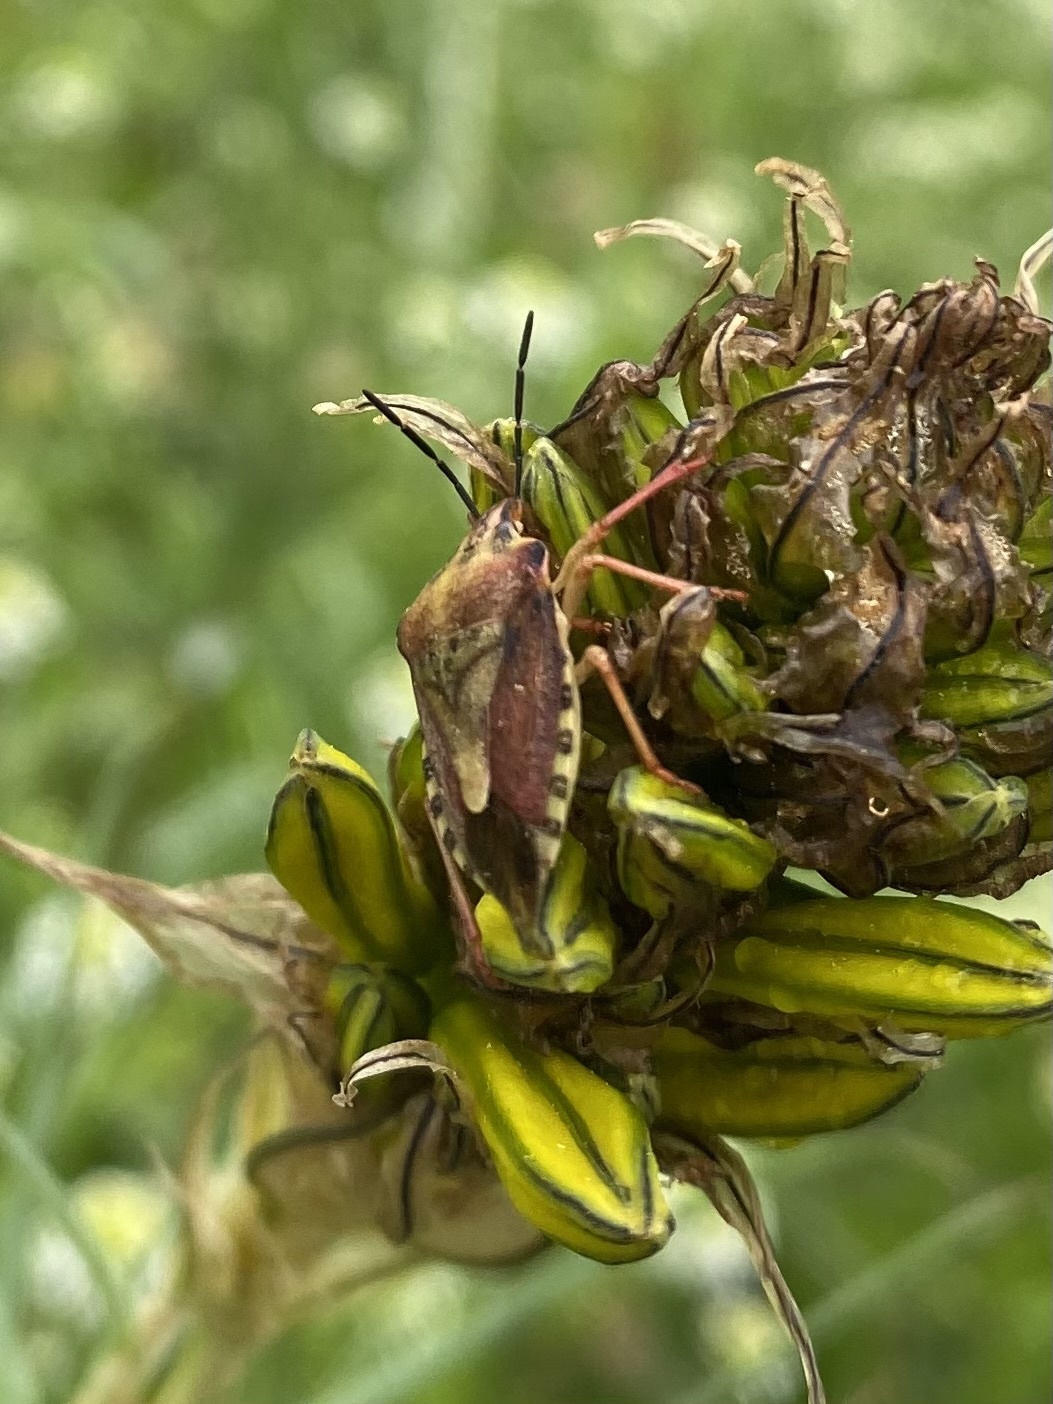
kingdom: Animalia
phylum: Arthropoda
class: Insecta
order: Hemiptera
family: Pentatomidae
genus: Carpocoris
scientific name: Carpocoris purpureipennis
